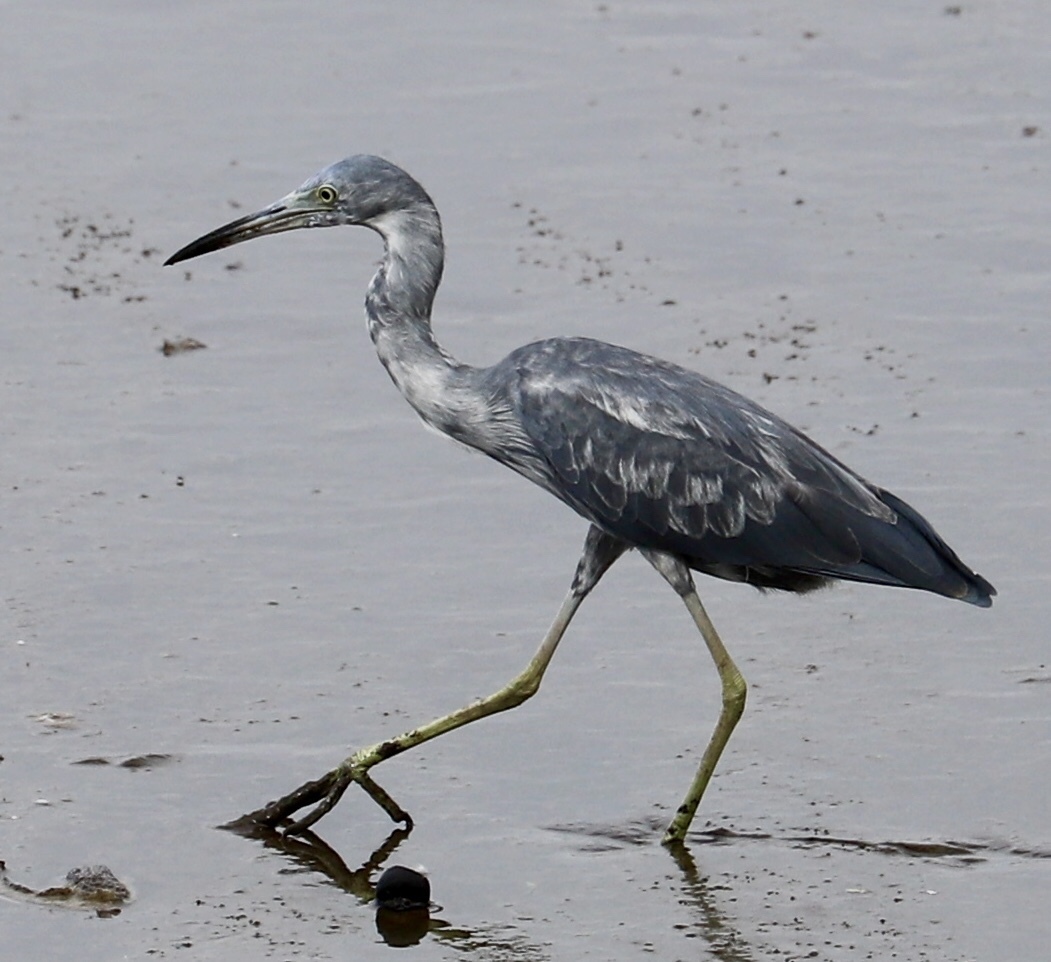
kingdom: Animalia
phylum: Chordata
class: Aves
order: Pelecaniformes
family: Ardeidae
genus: Egretta
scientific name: Egretta caerulea
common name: Little blue heron
